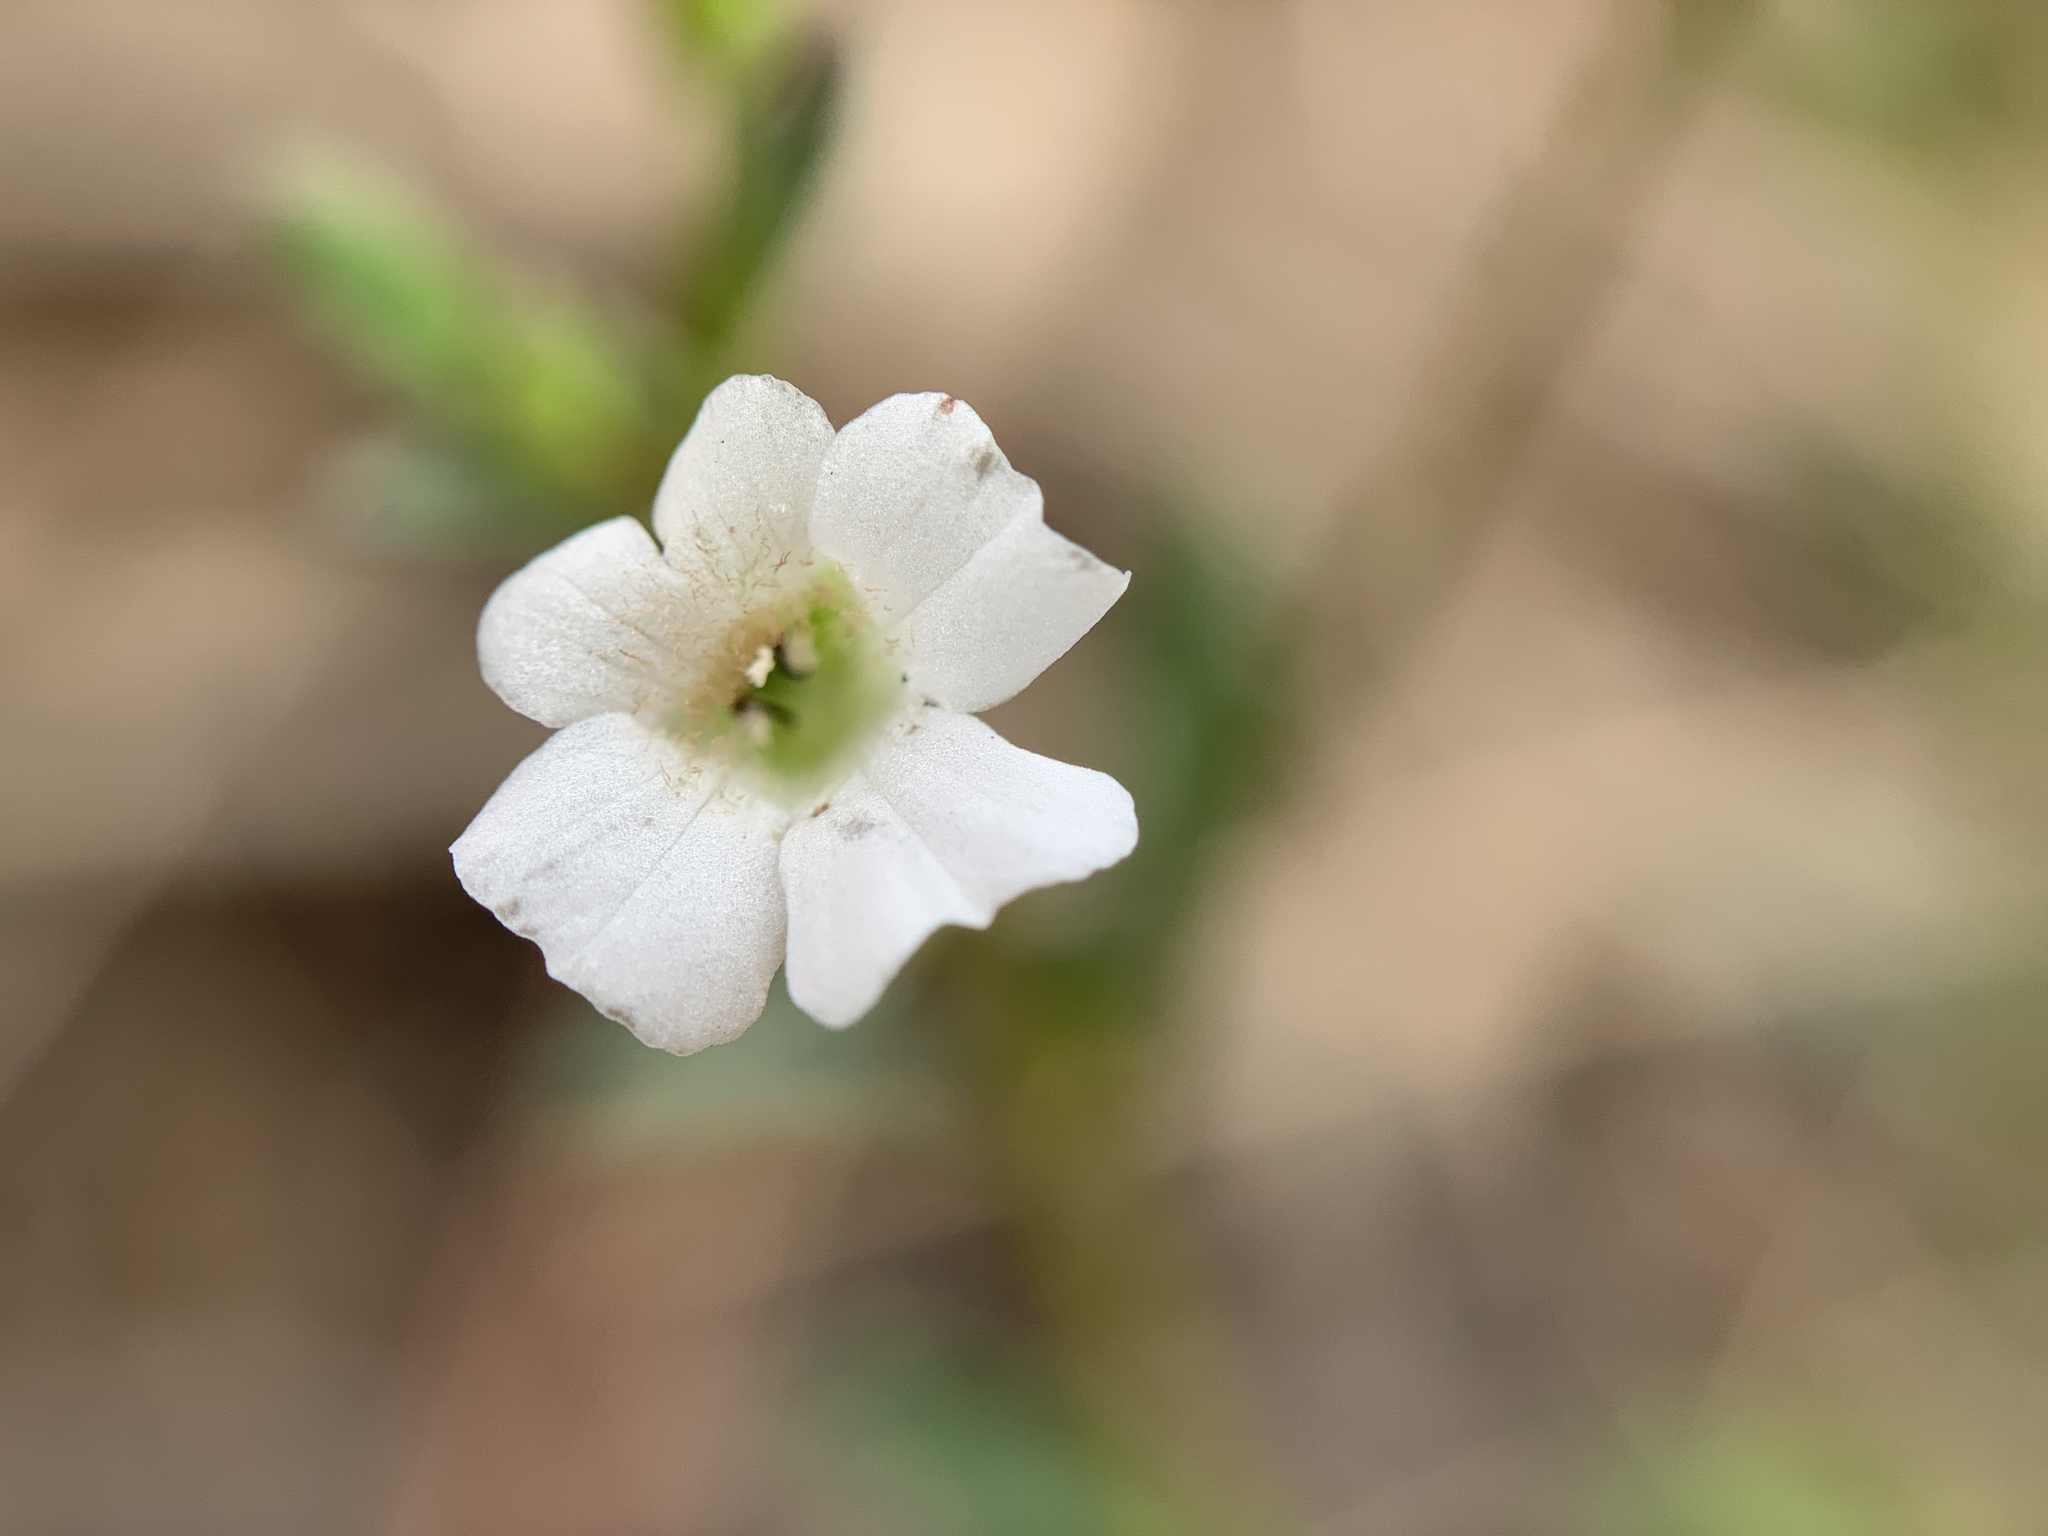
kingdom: Plantae
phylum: Tracheophyta
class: Magnoliopsida
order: Lamiales
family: Plantaginaceae
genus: Mecardonia
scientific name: Mecardonia acuminata
